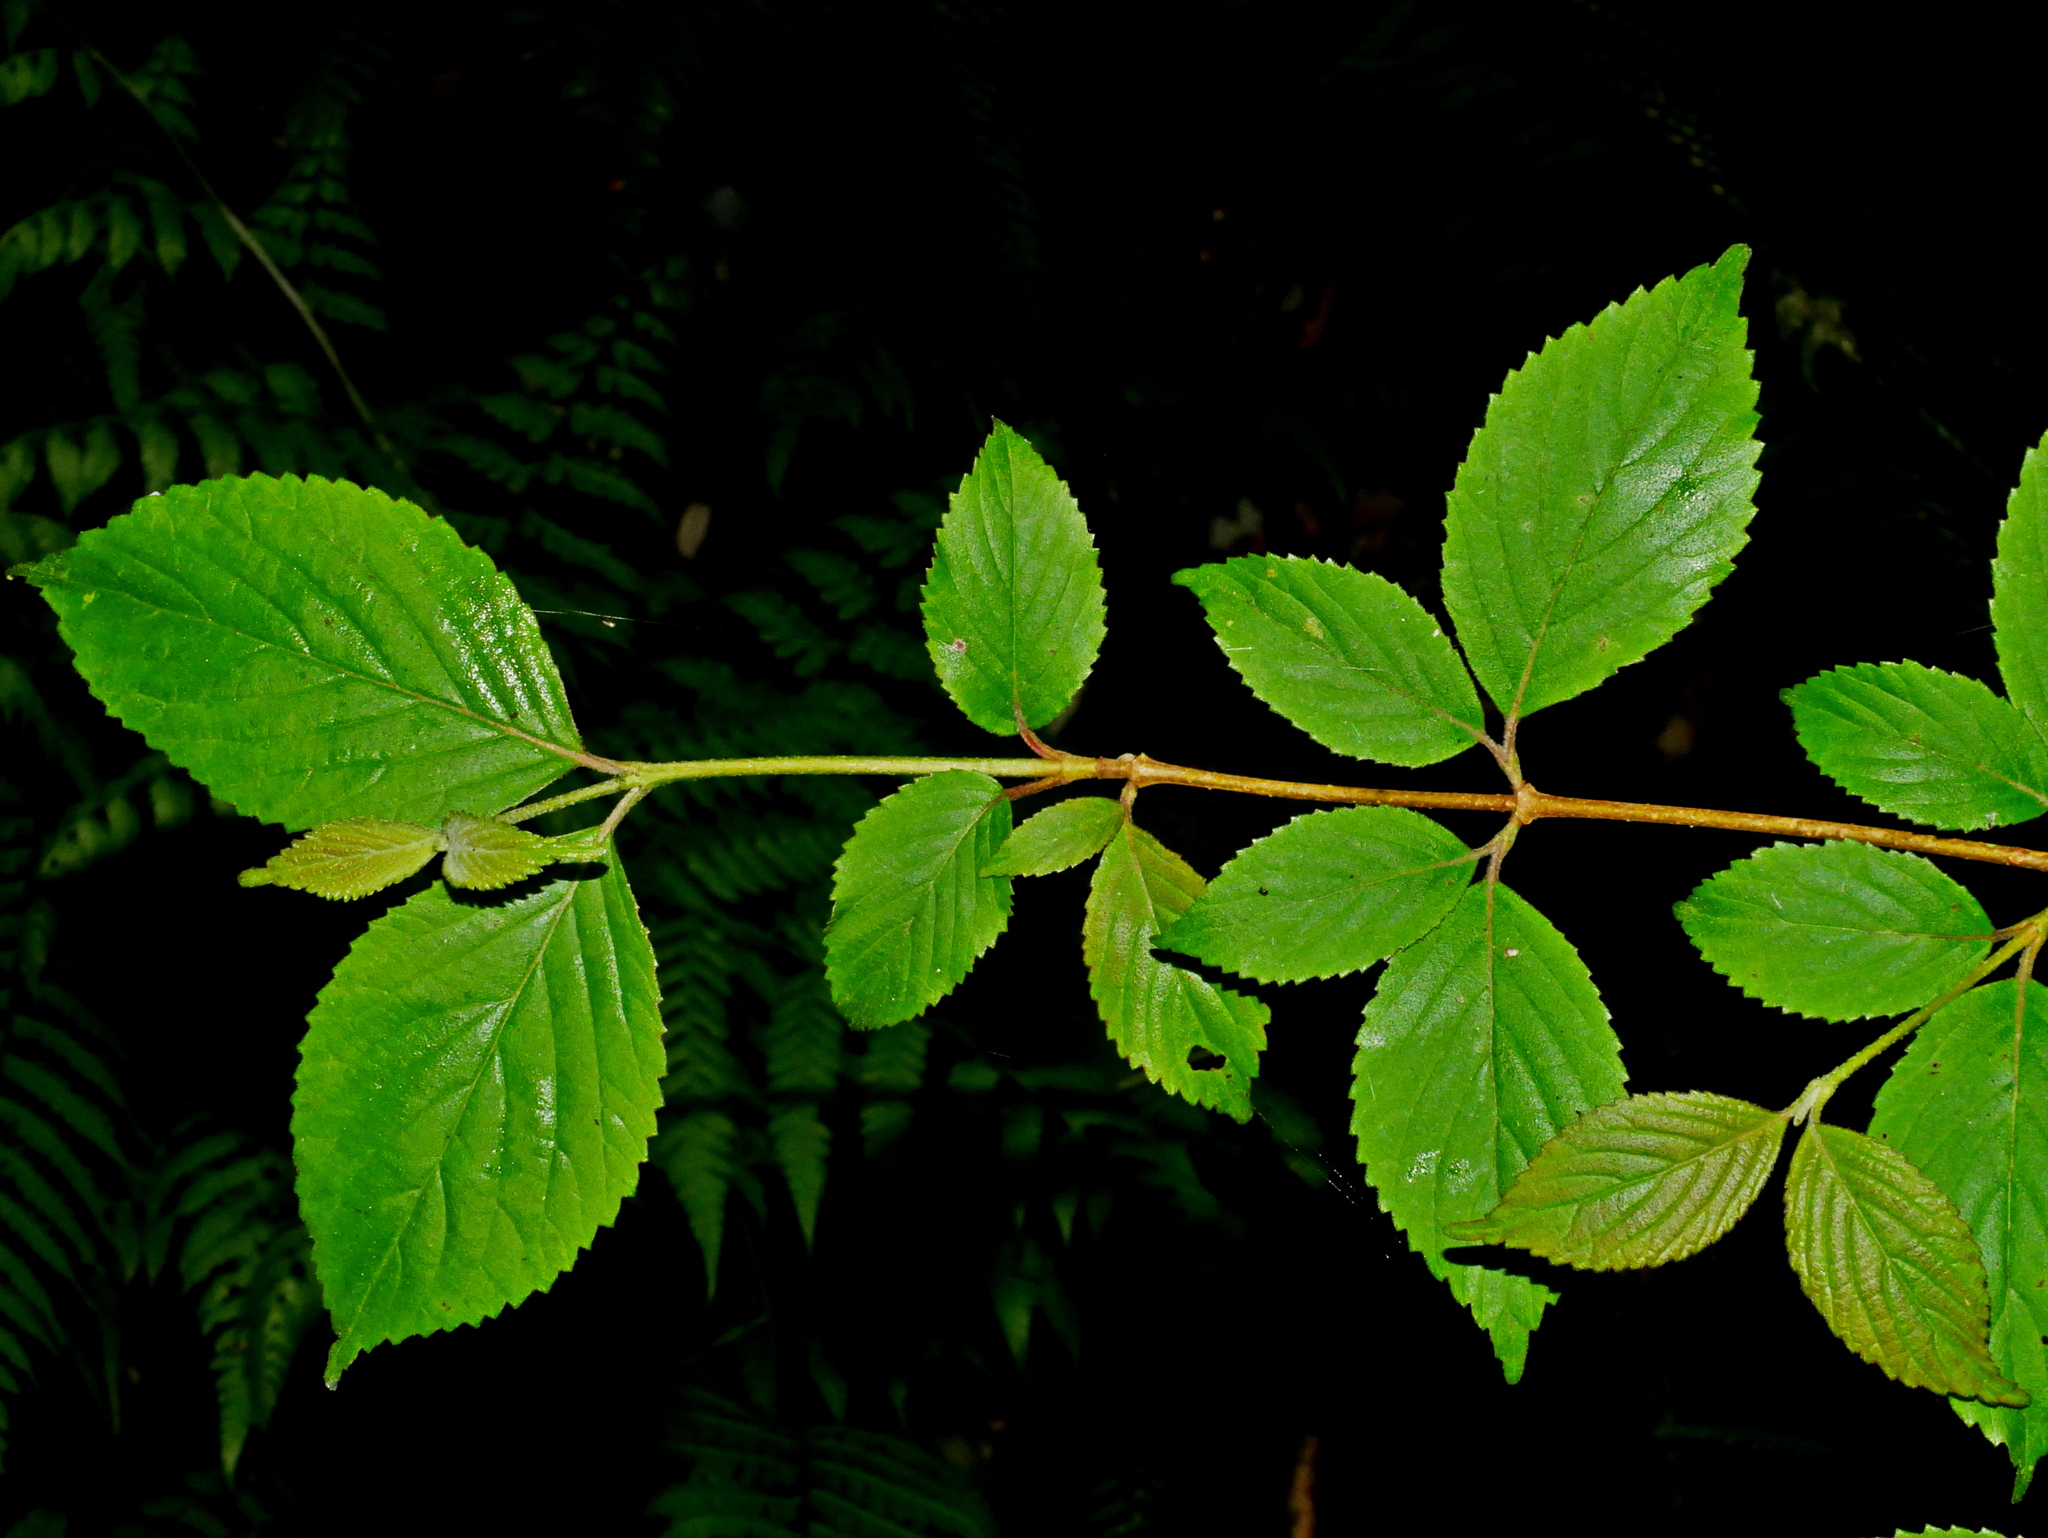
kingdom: Plantae
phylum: Tracheophyta
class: Magnoliopsida
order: Dipsacales
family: Viburnaceae
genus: Viburnum
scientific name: Viburnum plicatum
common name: Japanese snowball
